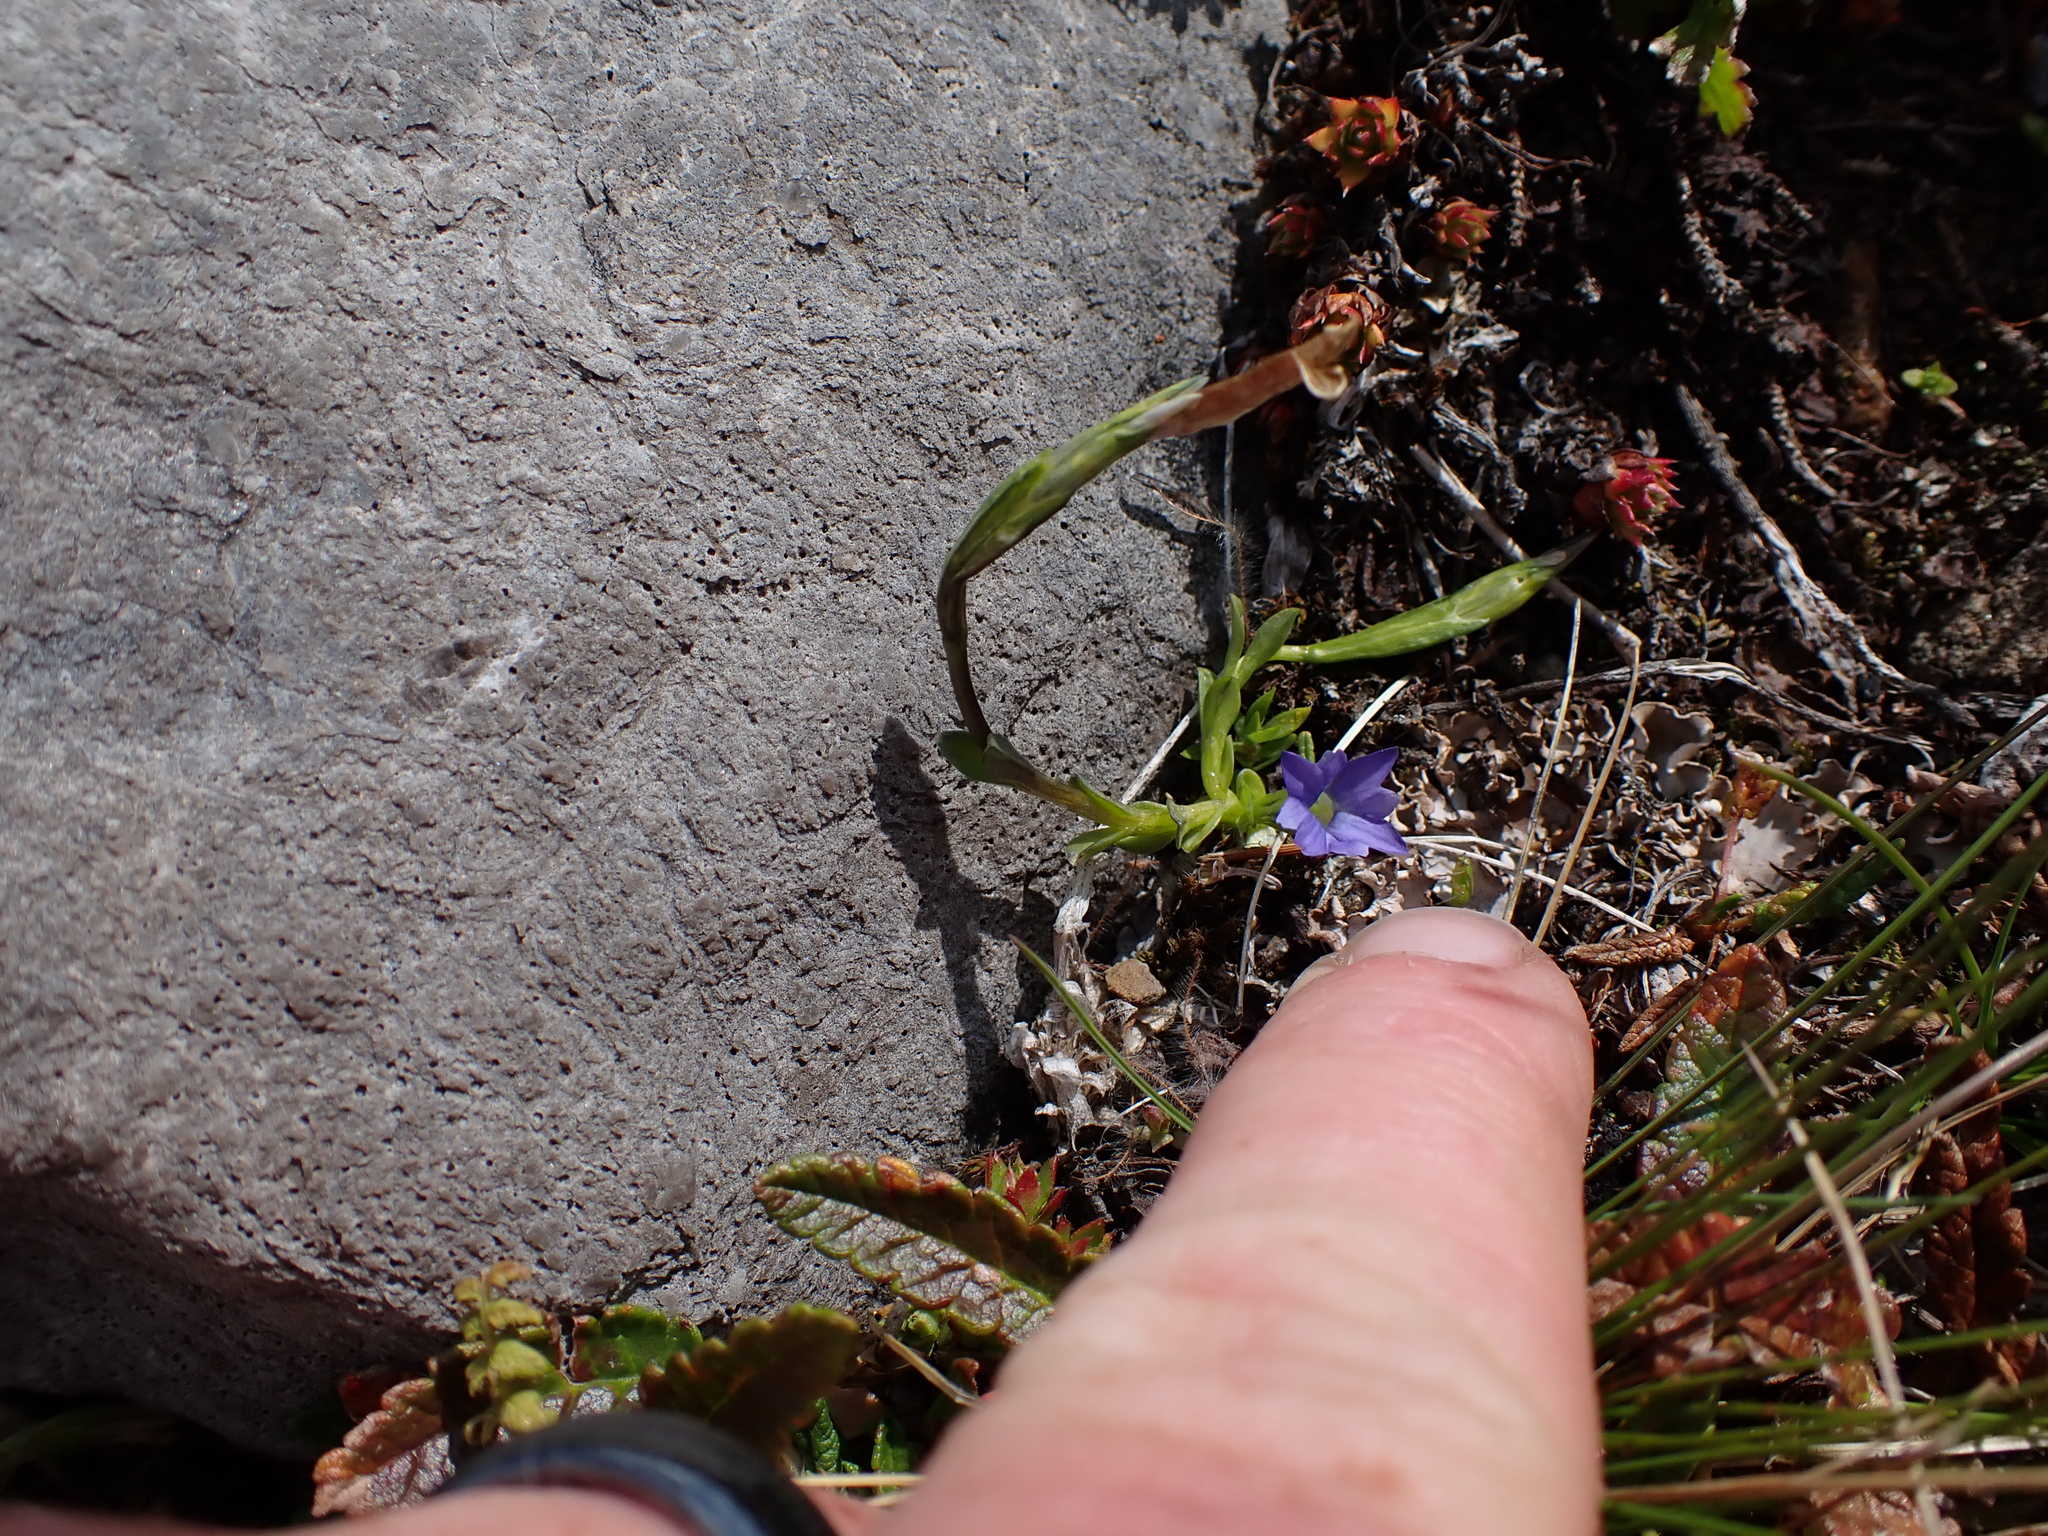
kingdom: Plantae
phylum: Tracheophyta
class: Magnoliopsida
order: Gentianales
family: Gentianaceae
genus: Gentiana
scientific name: Gentiana prostrata
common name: Moss gentian
